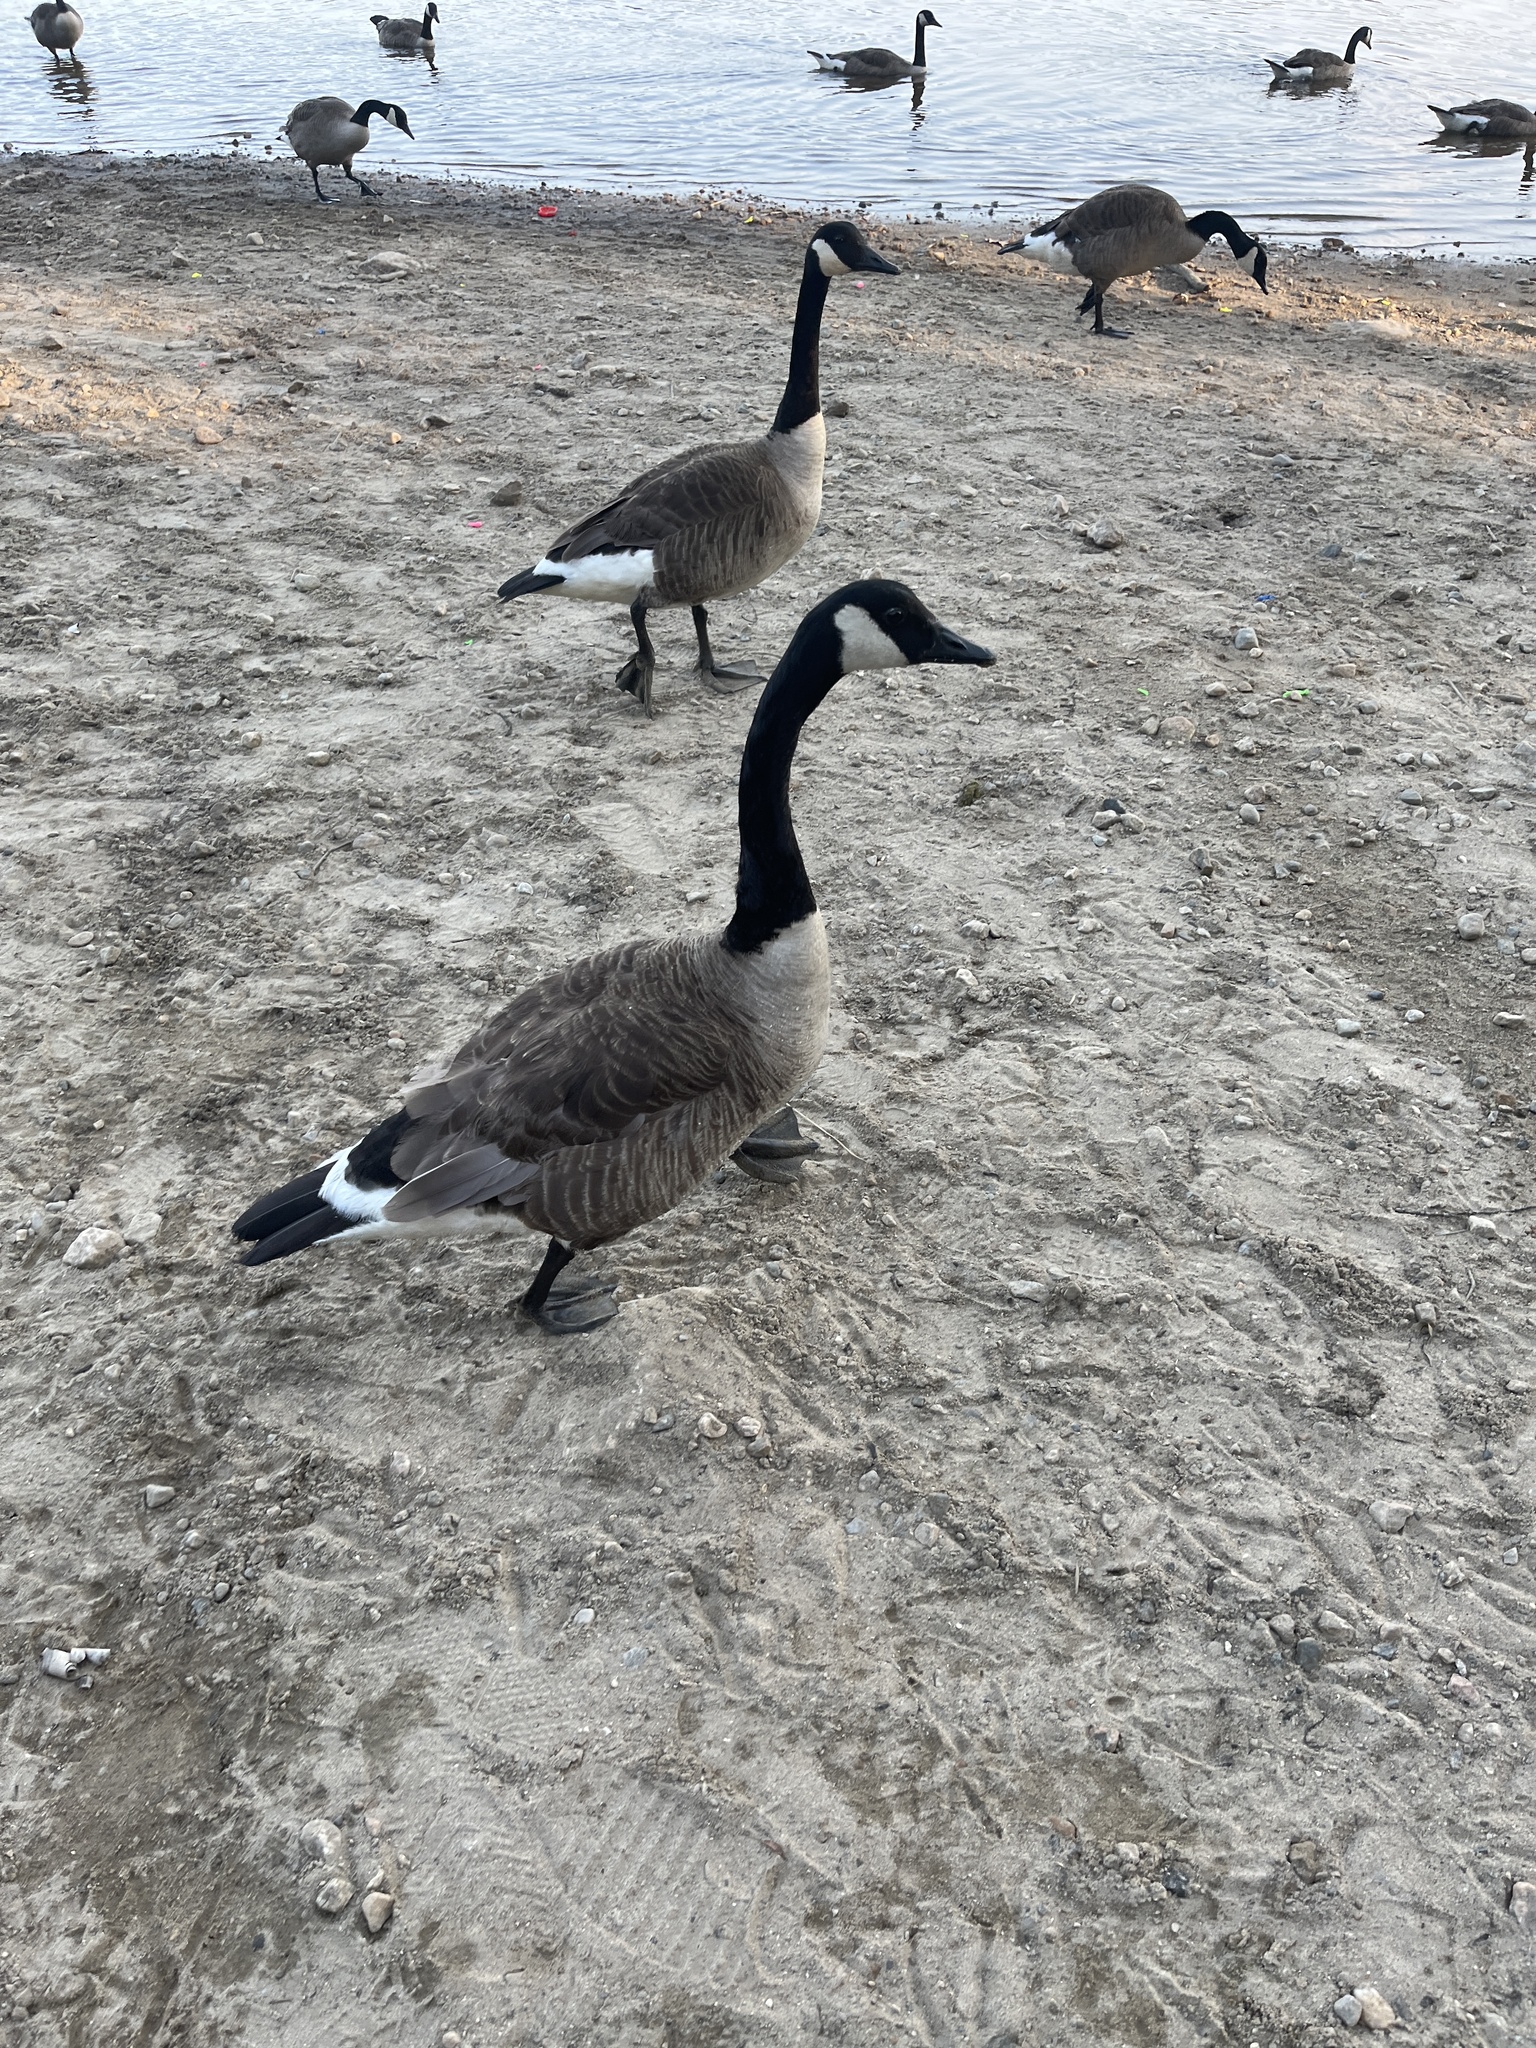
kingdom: Animalia
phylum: Chordata
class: Aves
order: Anseriformes
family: Anatidae
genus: Branta
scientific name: Branta canadensis
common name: Canada goose
